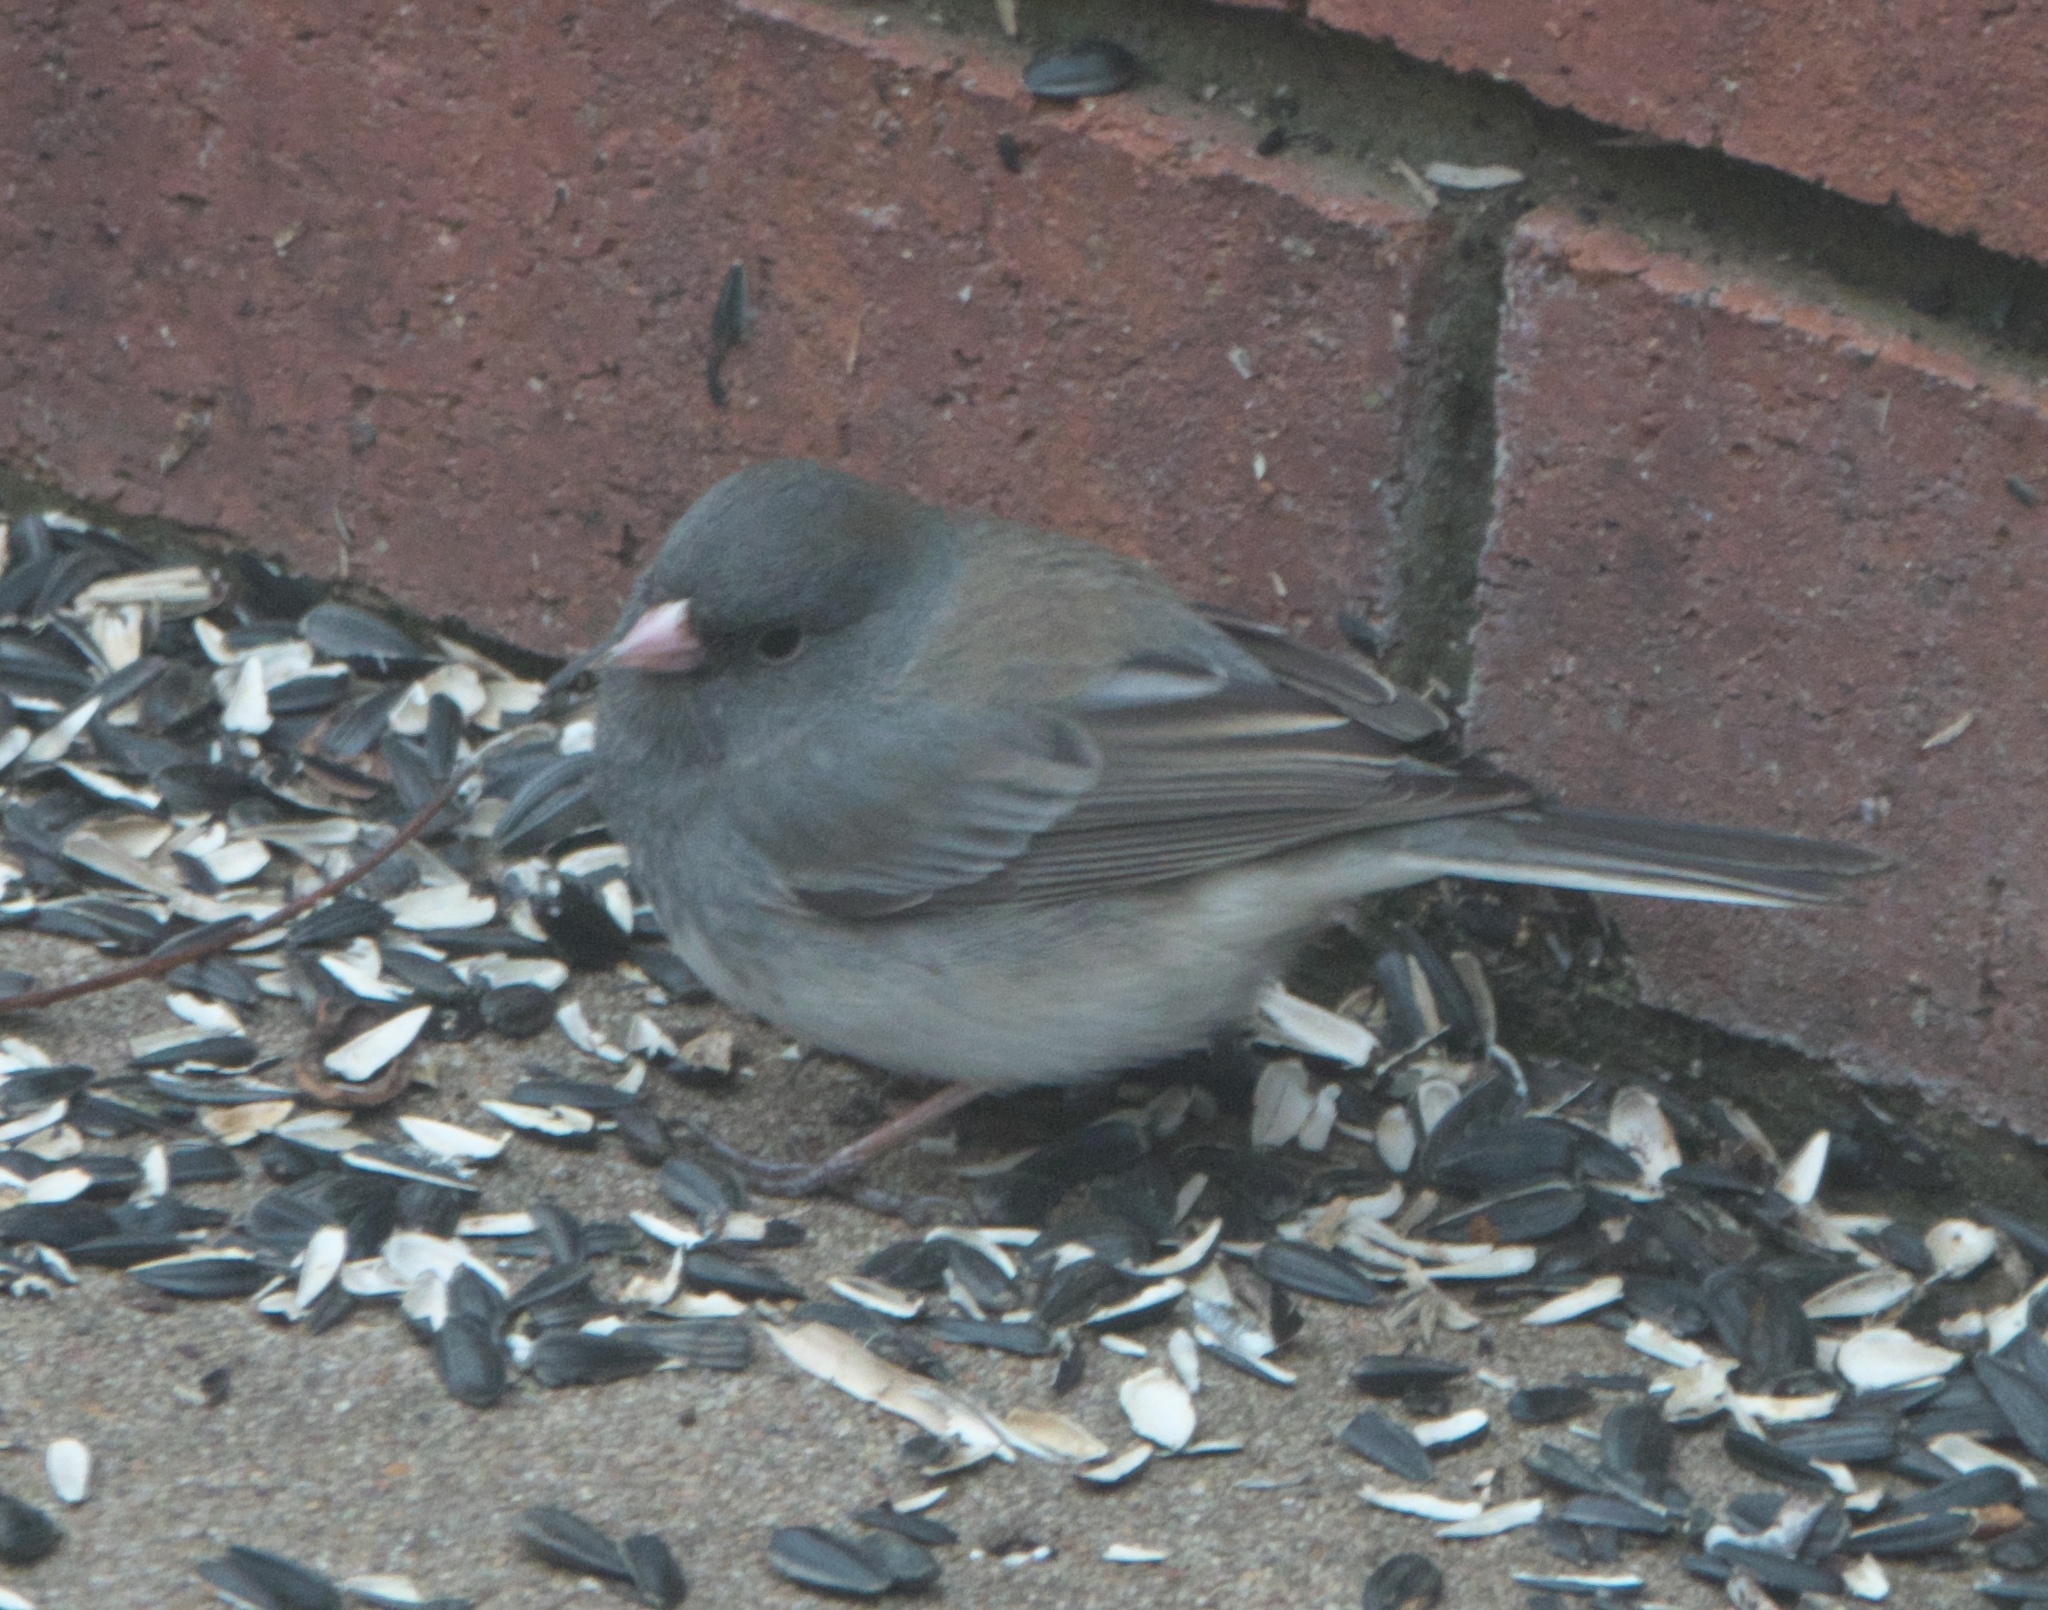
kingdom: Animalia
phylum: Chordata
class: Aves
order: Passeriformes
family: Passerellidae
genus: Junco
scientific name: Junco hyemalis
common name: Dark-eyed junco
